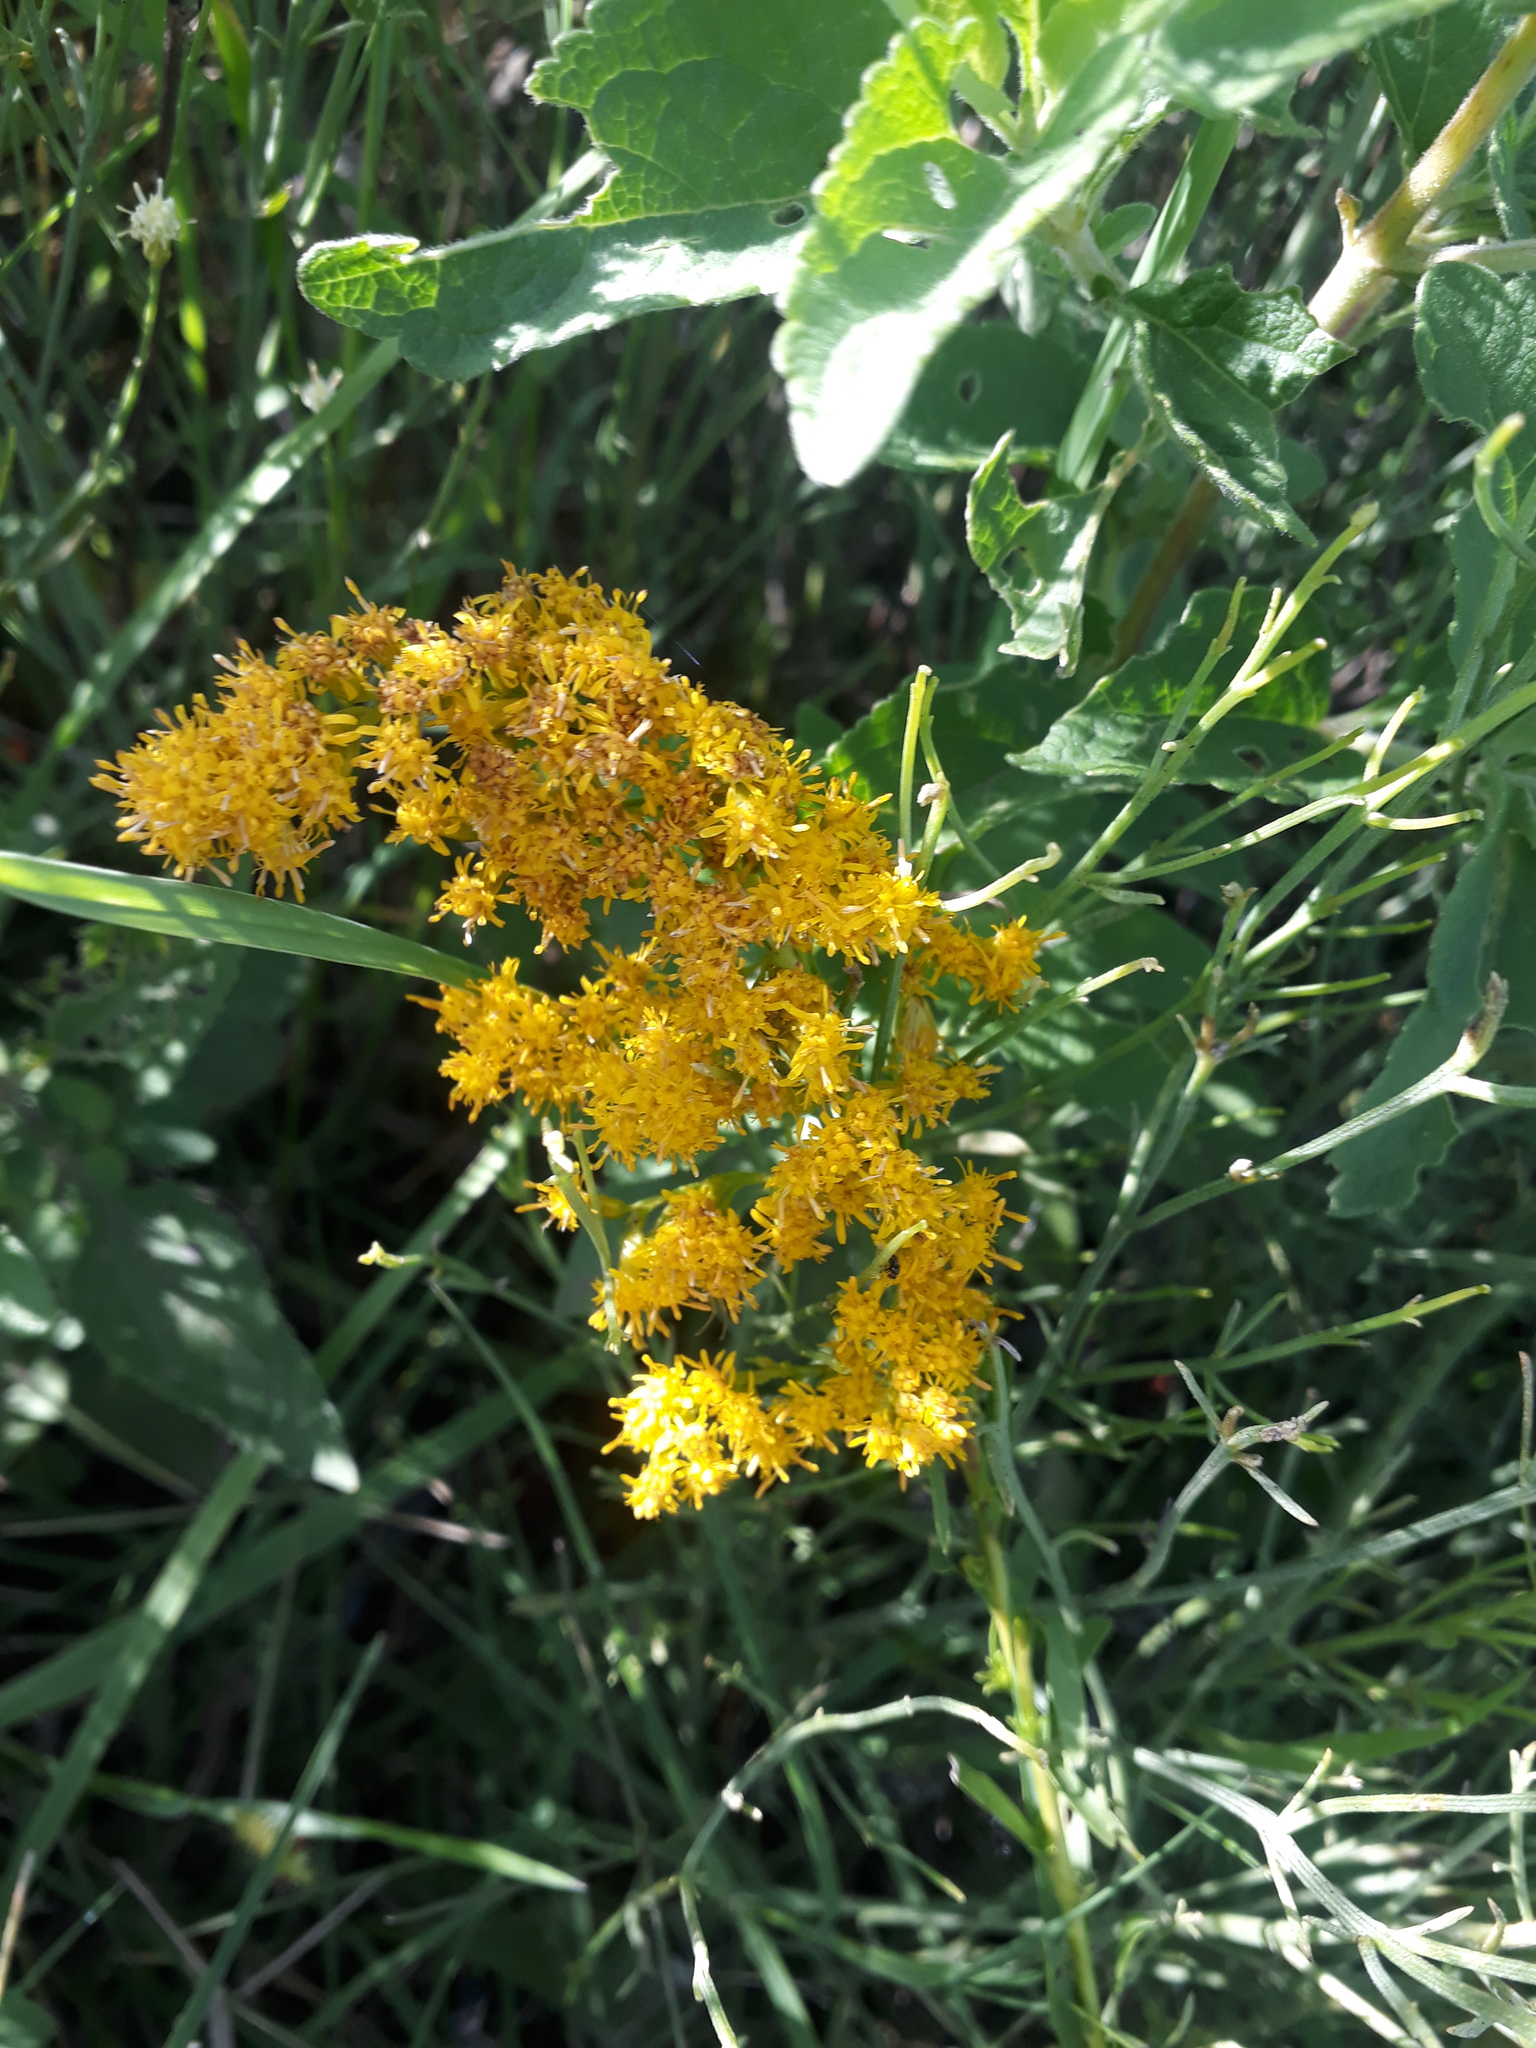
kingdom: Plantae
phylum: Tracheophyta
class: Magnoliopsida
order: Asterales
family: Asteraceae
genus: Solidago
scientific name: Solidago chilensis
